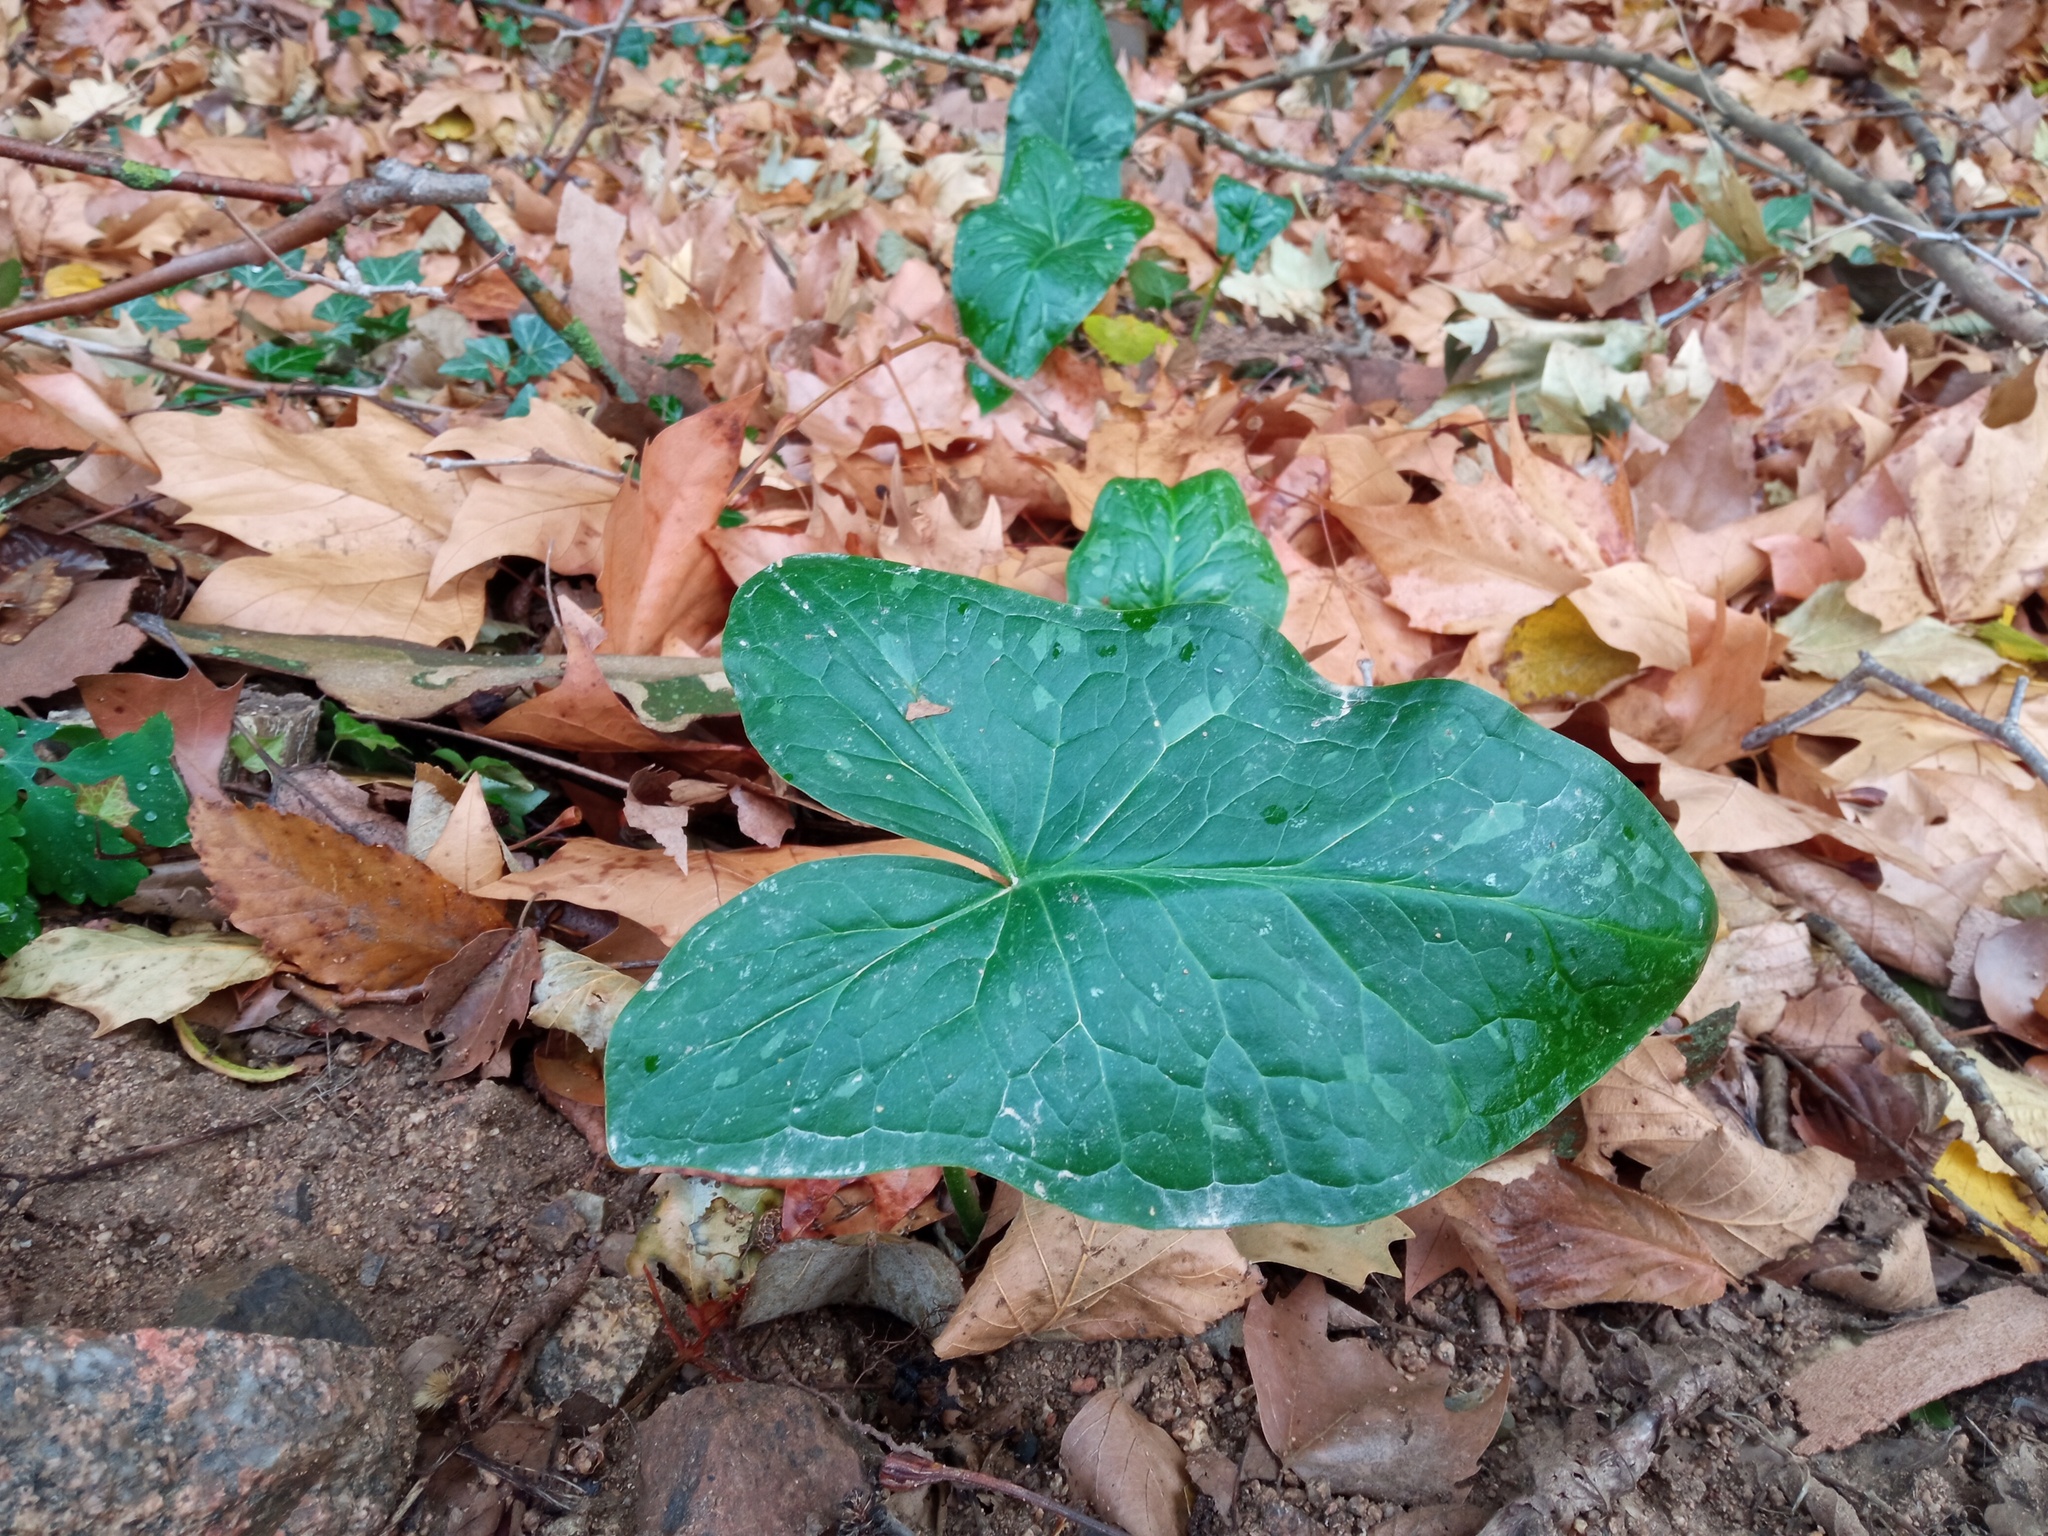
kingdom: Plantae
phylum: Tracheophyta
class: Liliopsida
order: Alismatales
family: Araceae
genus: Arum
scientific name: Arum italicum
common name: Italian lords-and-ladies
